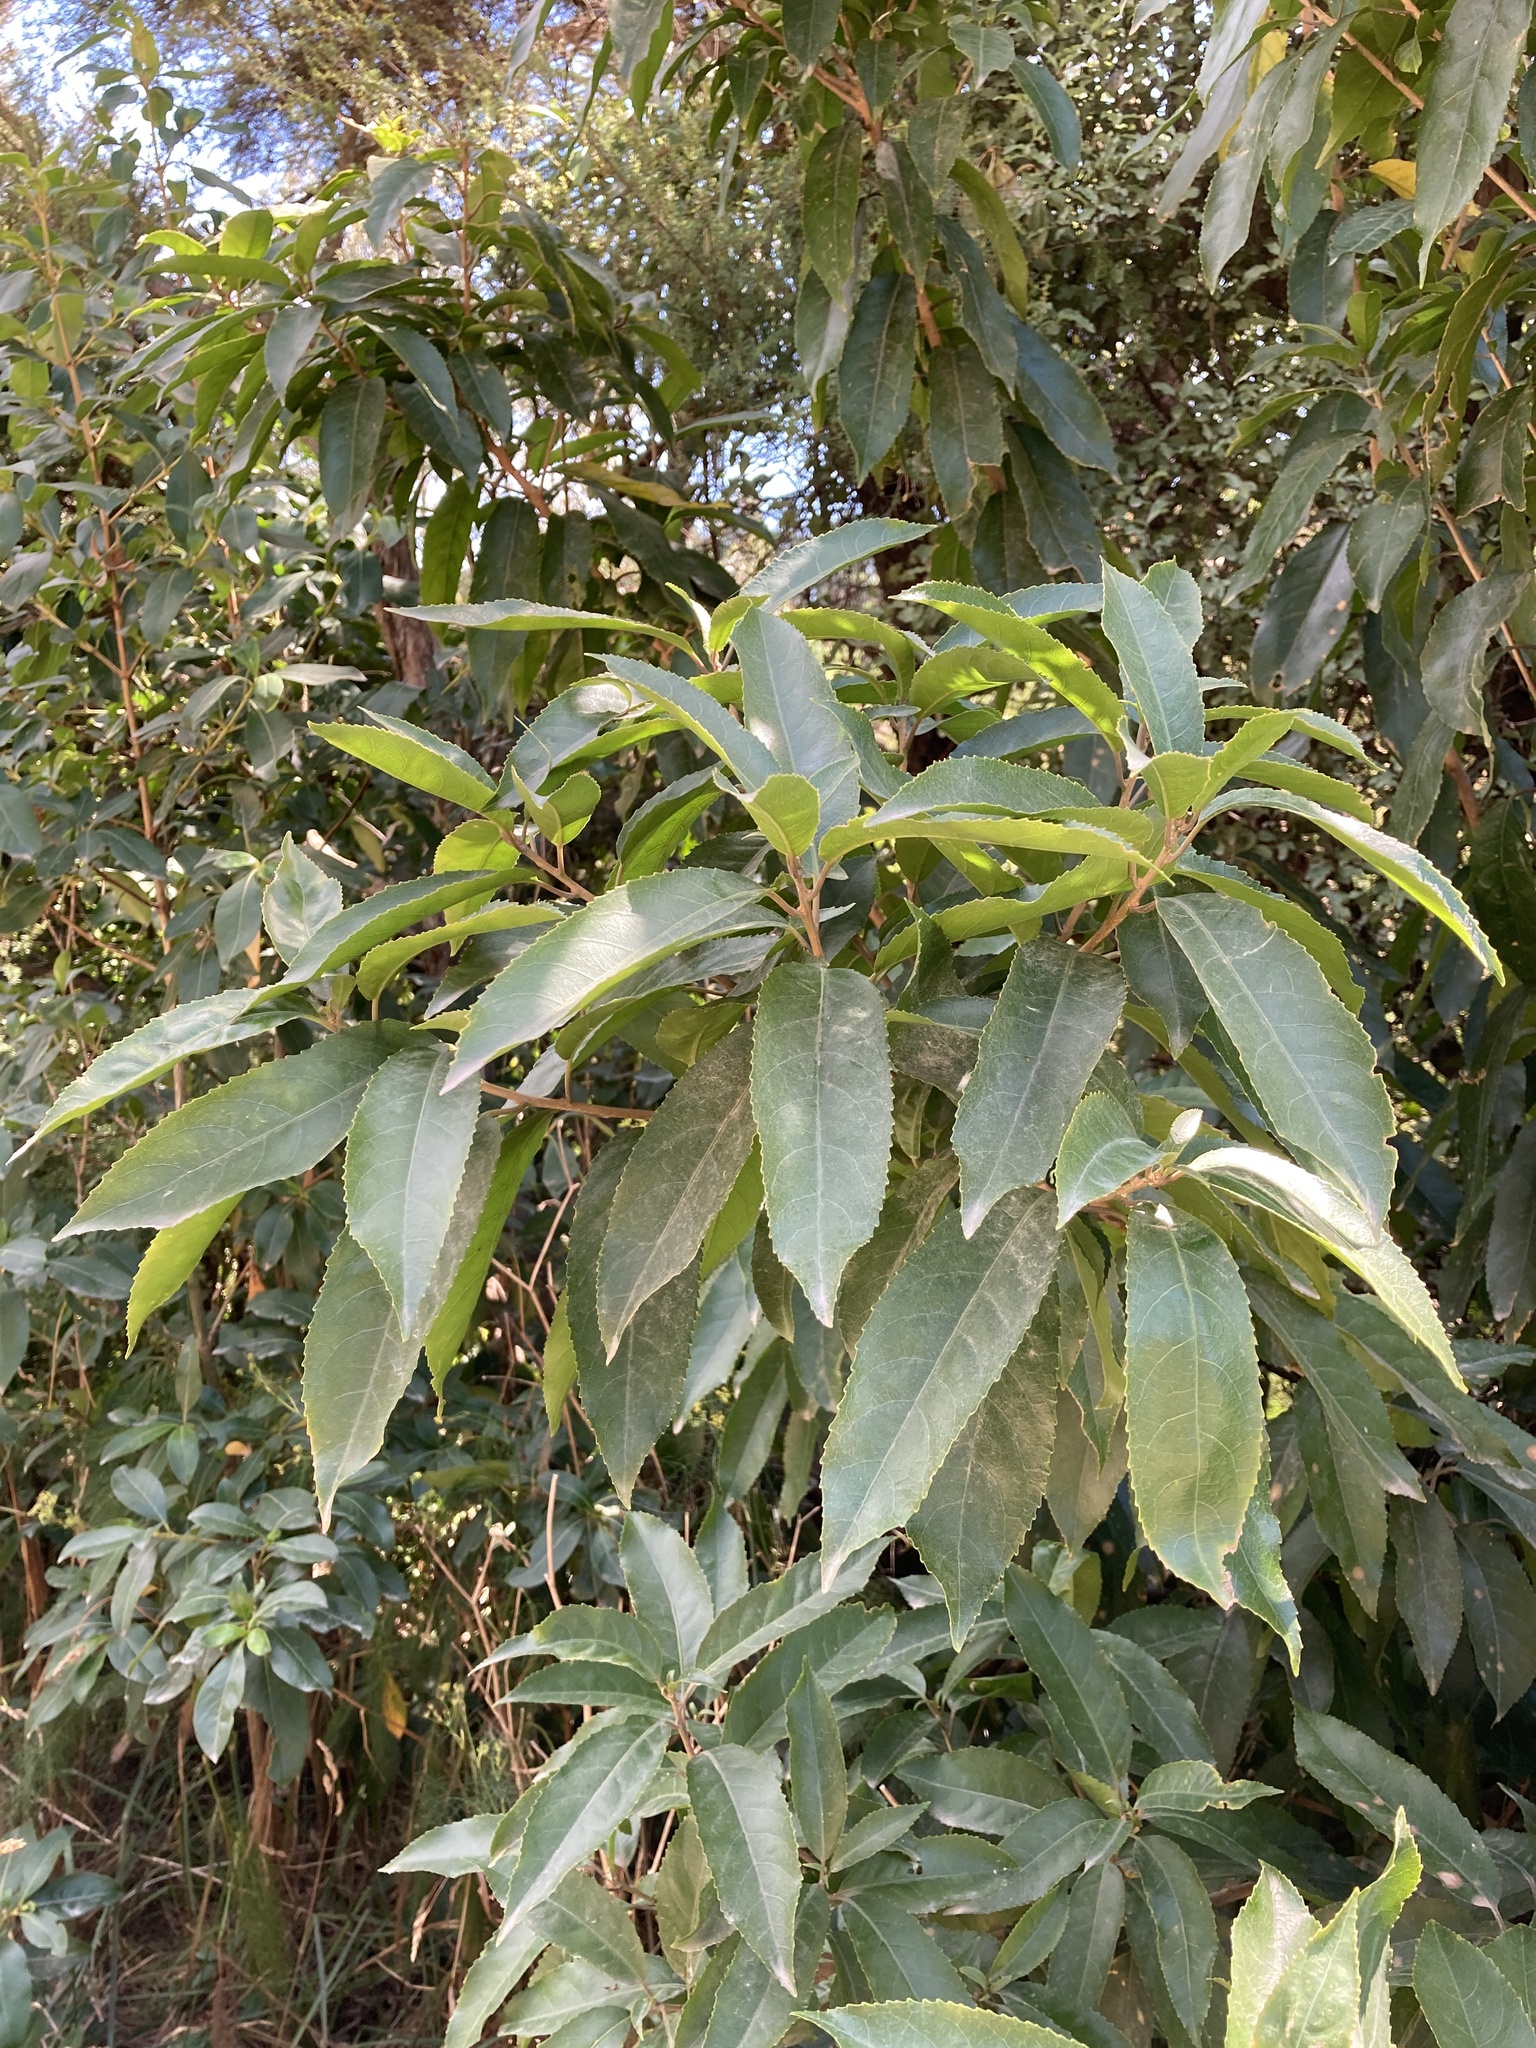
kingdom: Plantae
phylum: Tracheophyta
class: Magnoliopsida
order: Malpighiales
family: Violaceae
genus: Melicytus
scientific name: Melicytus ramiflorus
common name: Mahoe
